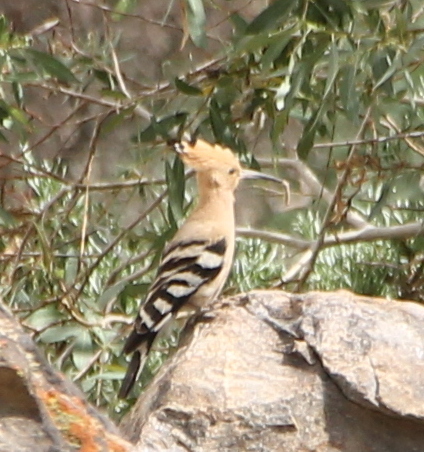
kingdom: Animalia
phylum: Chordata
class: Aves
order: Bucerotiformes
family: Upupidae
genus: Upupa
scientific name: Upupa epops
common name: Eurasian hoopoe
